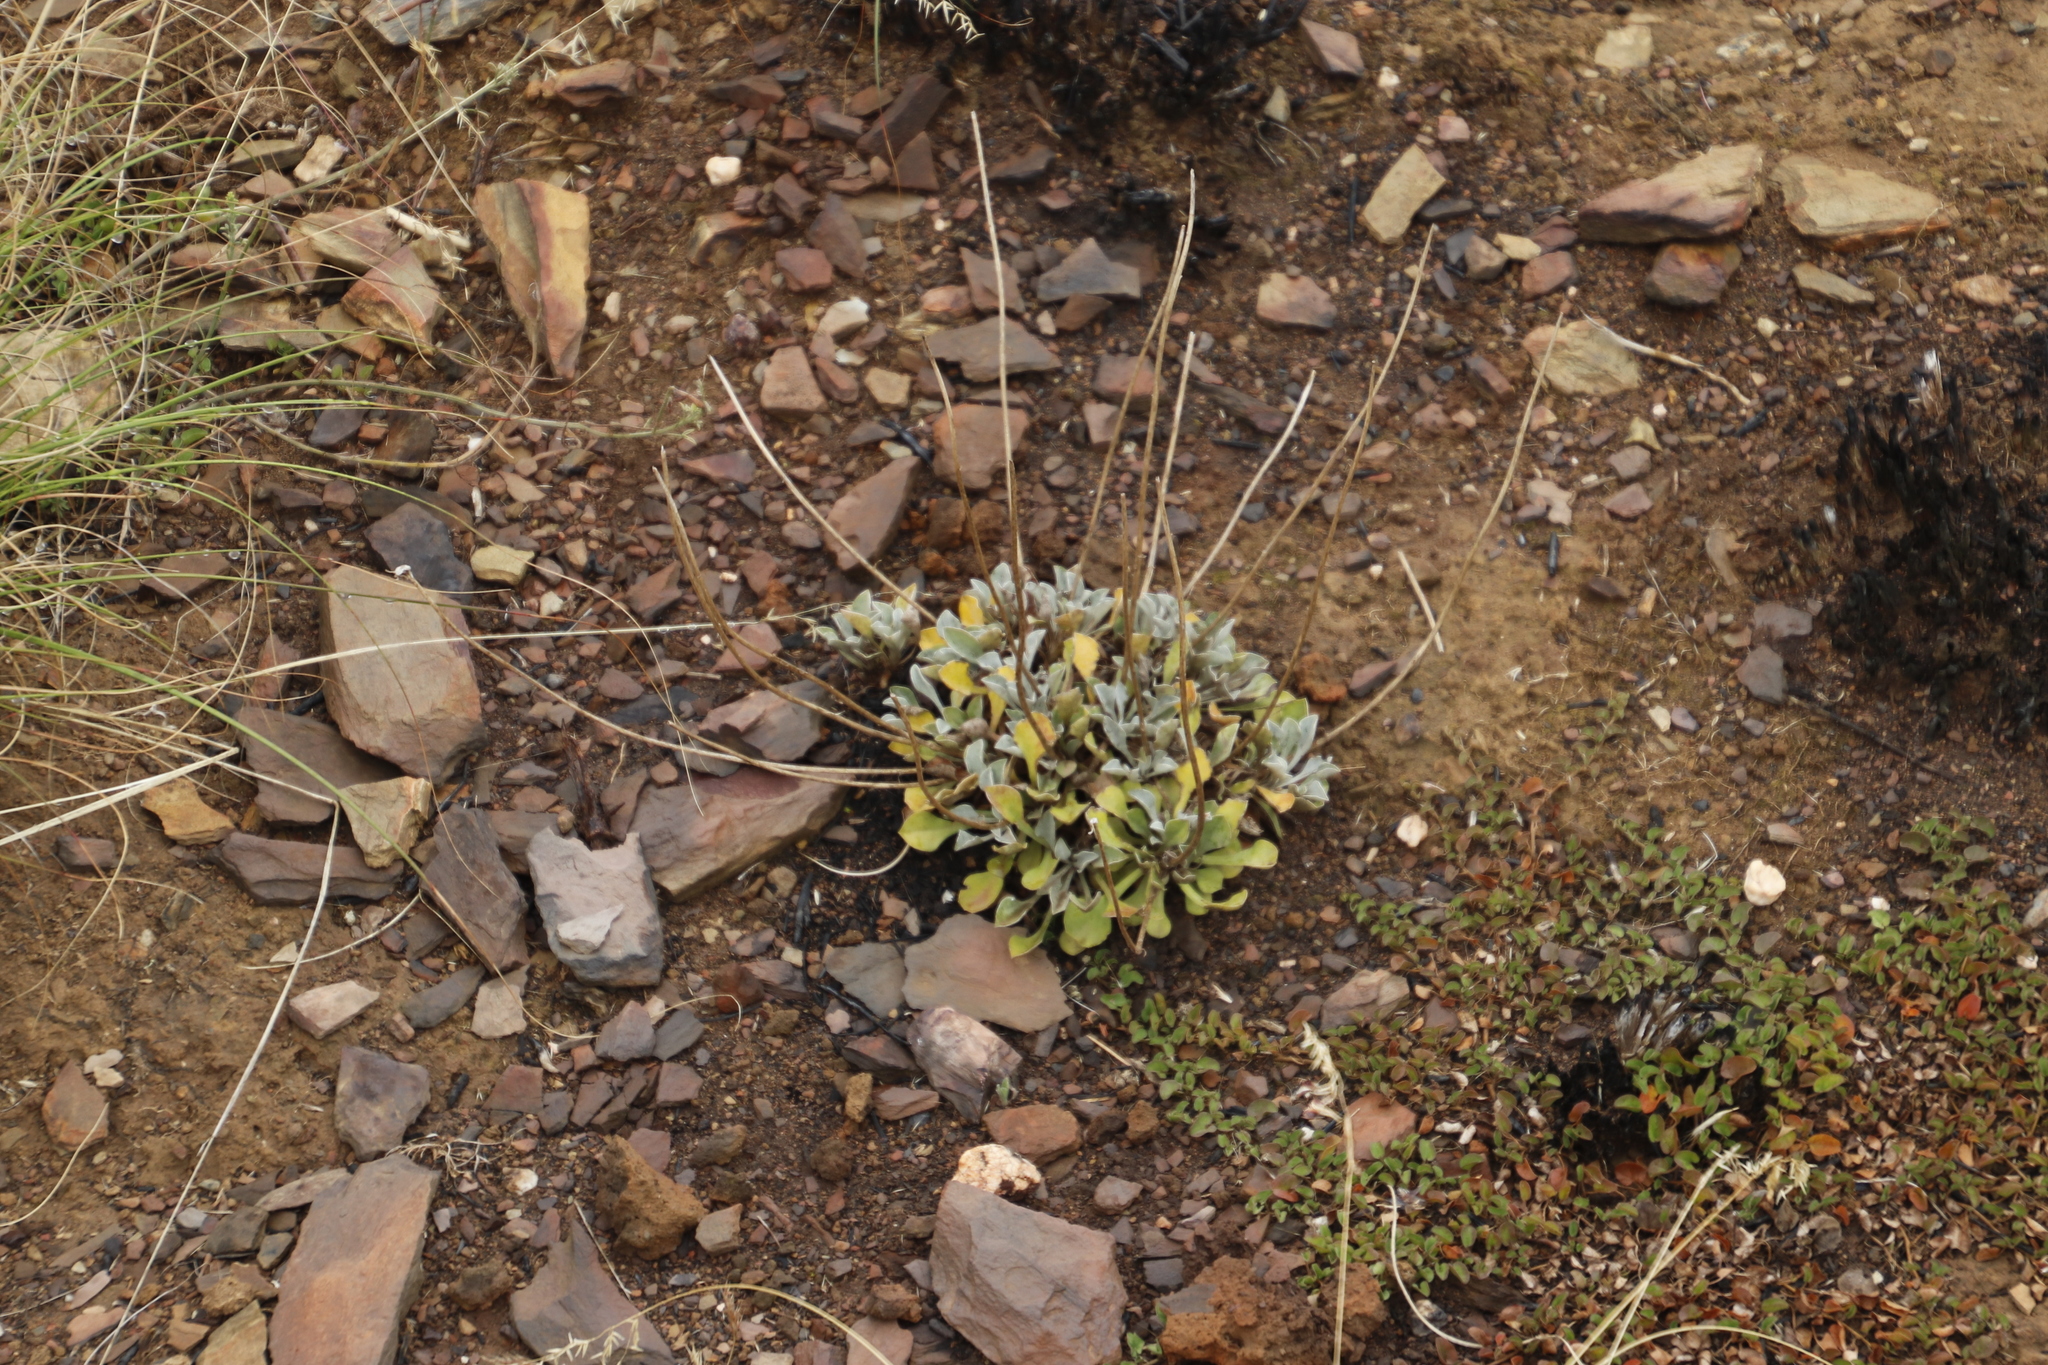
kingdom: Plantae
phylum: Tracheophyta
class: Magnoliopsida
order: Asterales
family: Asteraceae
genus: Osteospermum
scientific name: Osteospermum tomentosum
